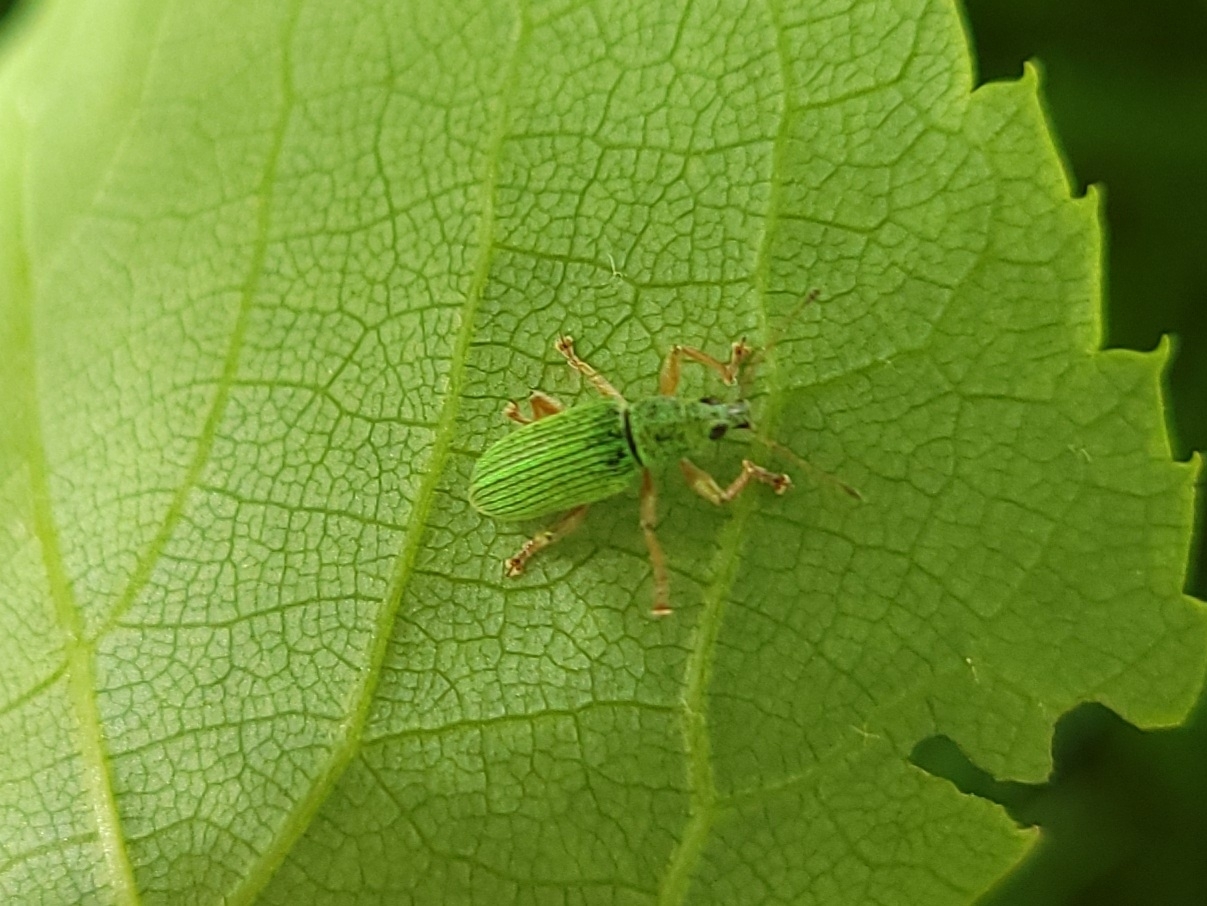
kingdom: Animalia
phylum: Arthropoda
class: Insecta
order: Coleoptera
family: Curculionidae
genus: Polydrusus
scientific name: Polydrusus formosus
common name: Weevil
